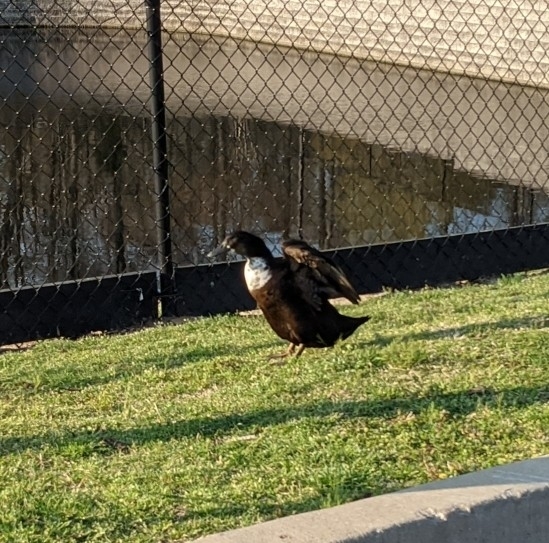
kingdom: Animalia
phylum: Chordata
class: Aves
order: Anseriformes
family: Anatidae
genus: Anas
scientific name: Anas platyrhynchos
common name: Mallard
